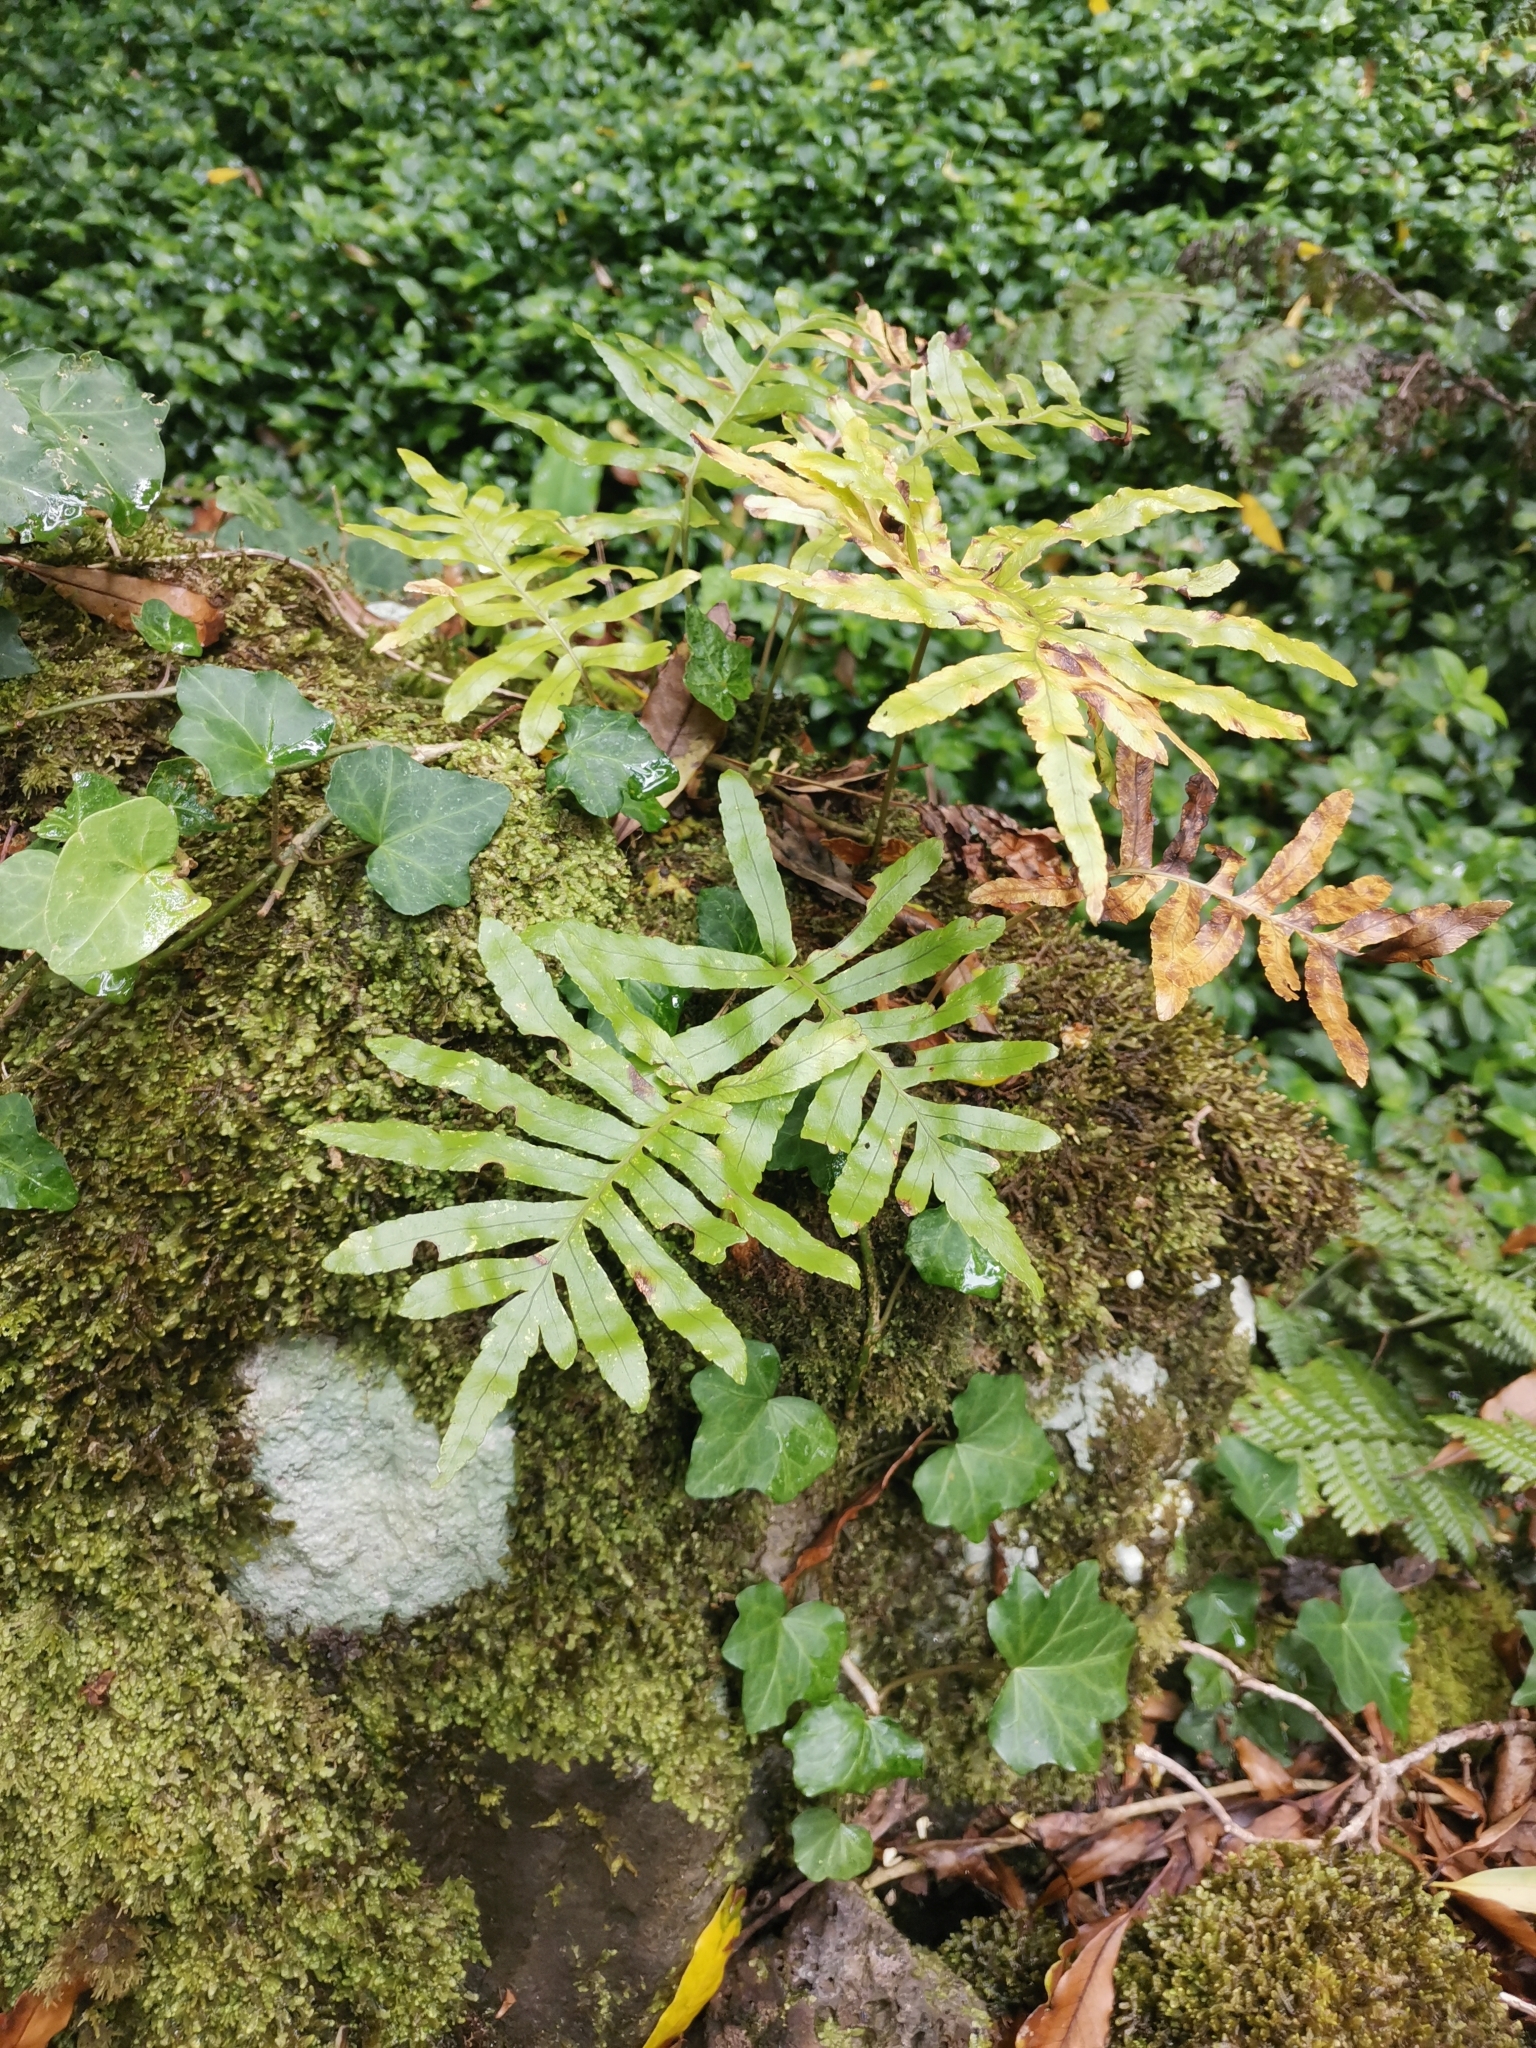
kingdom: Plantae
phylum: Tracheophyta
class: Polypodiopsida
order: Polypodiales
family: Polypodiaceae
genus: Polypodium
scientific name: Polypodium macaronesicum
